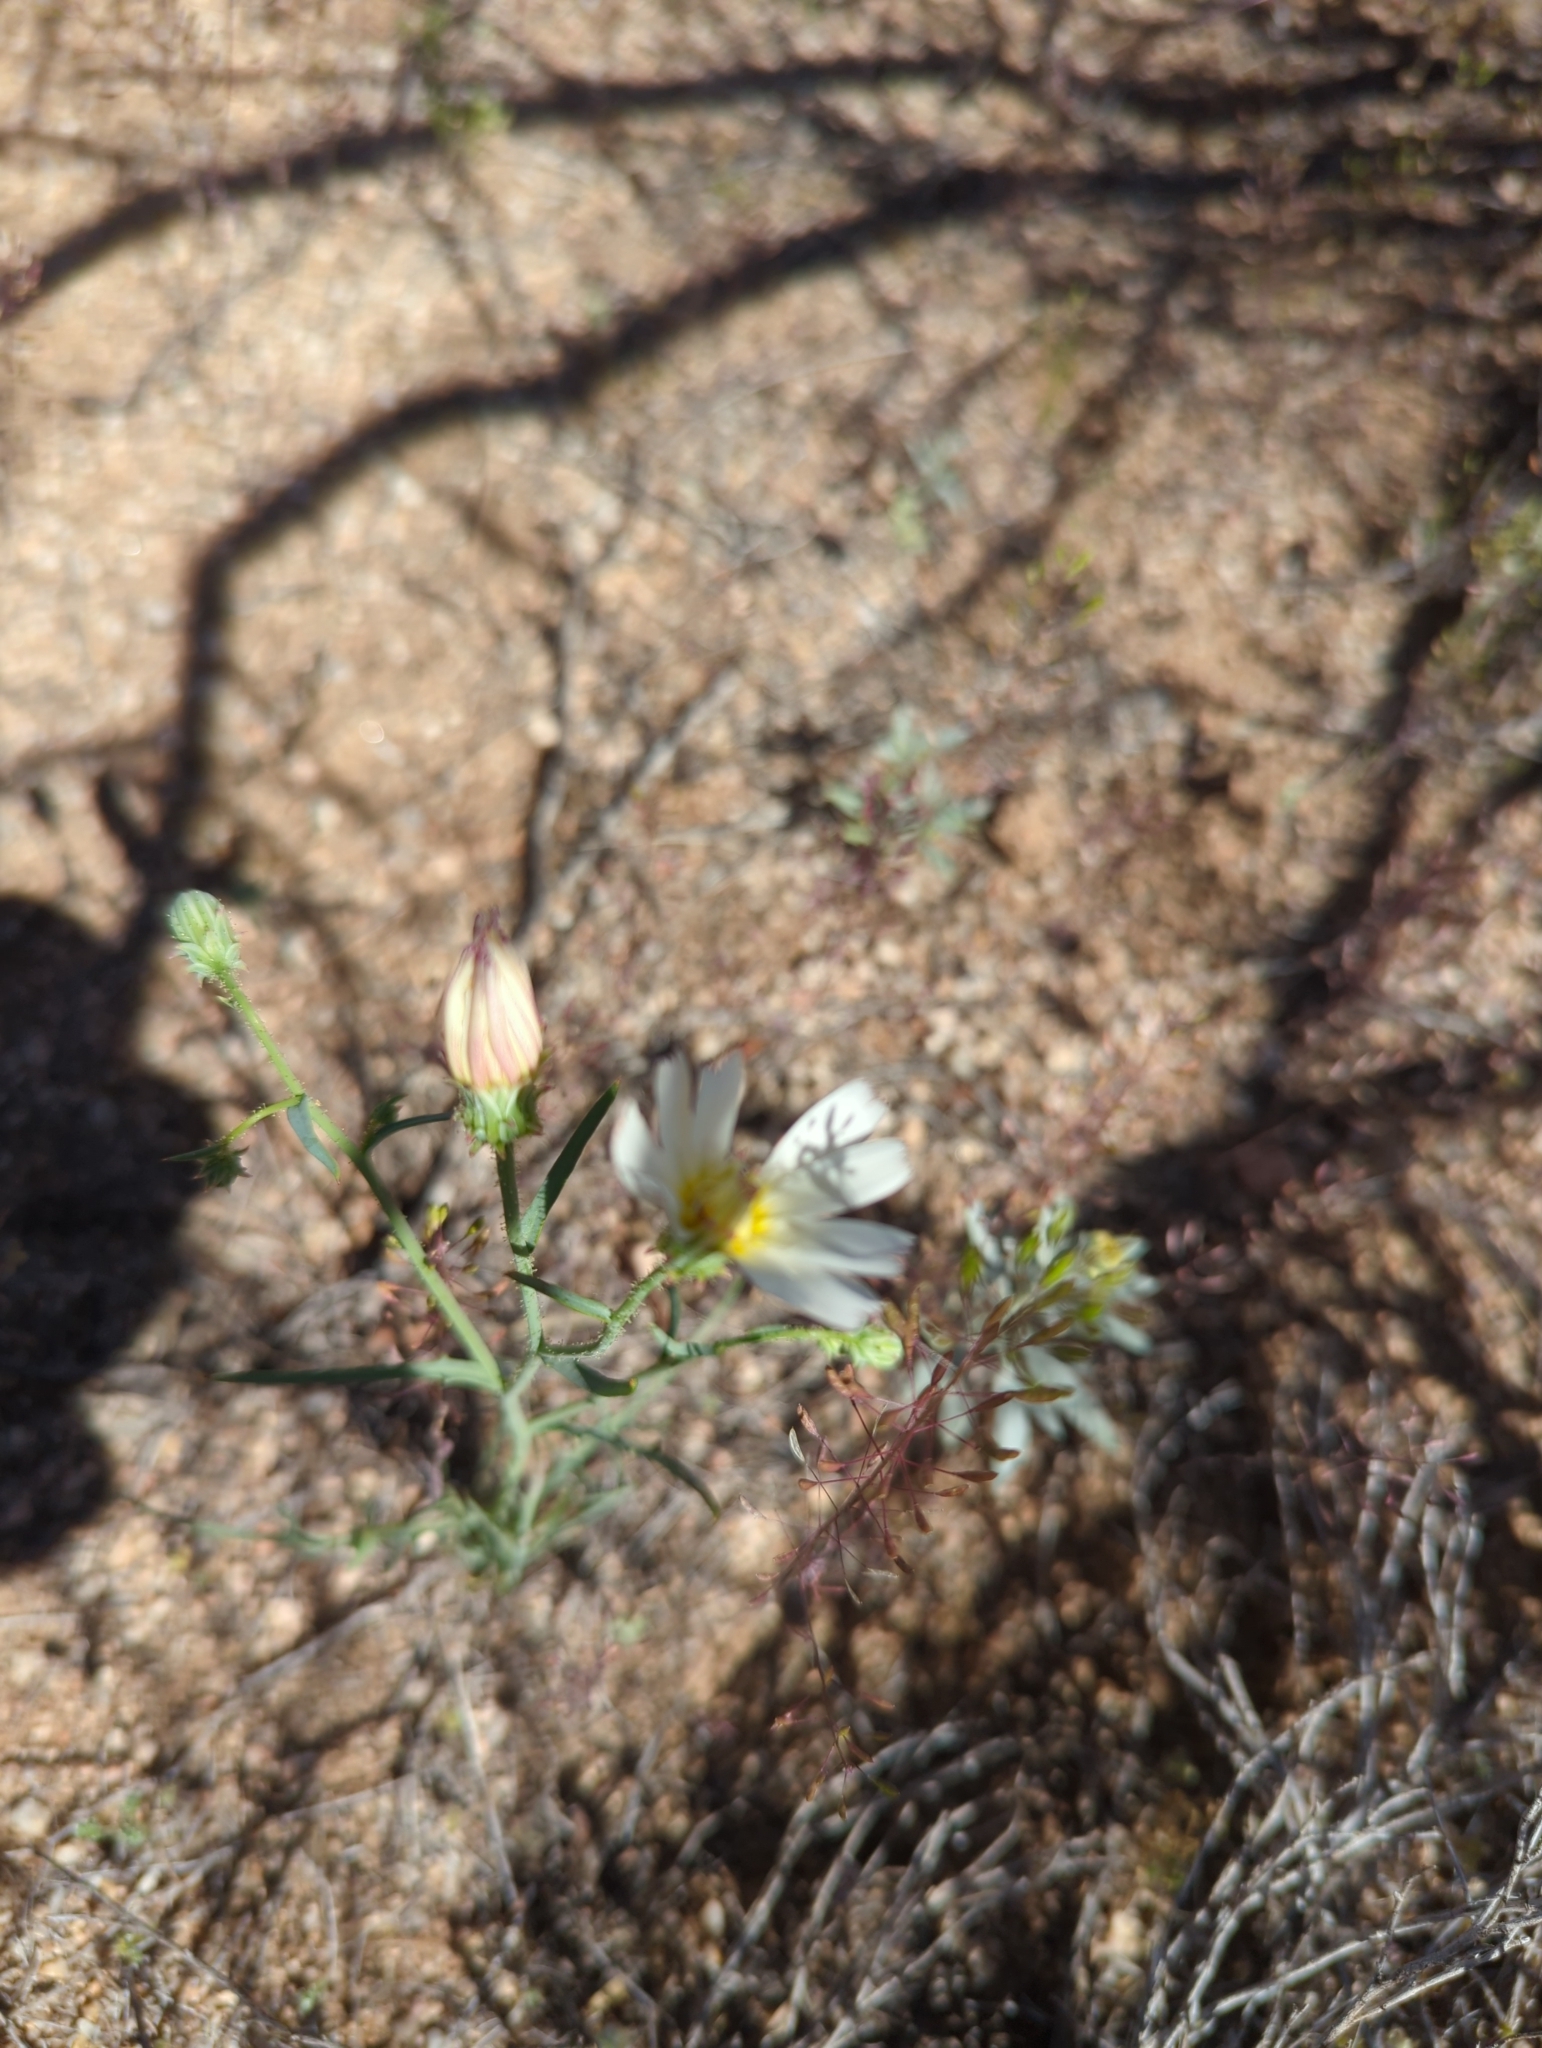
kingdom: Plantae
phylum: Tracheophyta
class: Magnoliopsida
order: Asterales
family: Asteraceae
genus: Calycoseris
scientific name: Calycoseris wrightii
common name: White tackstem
